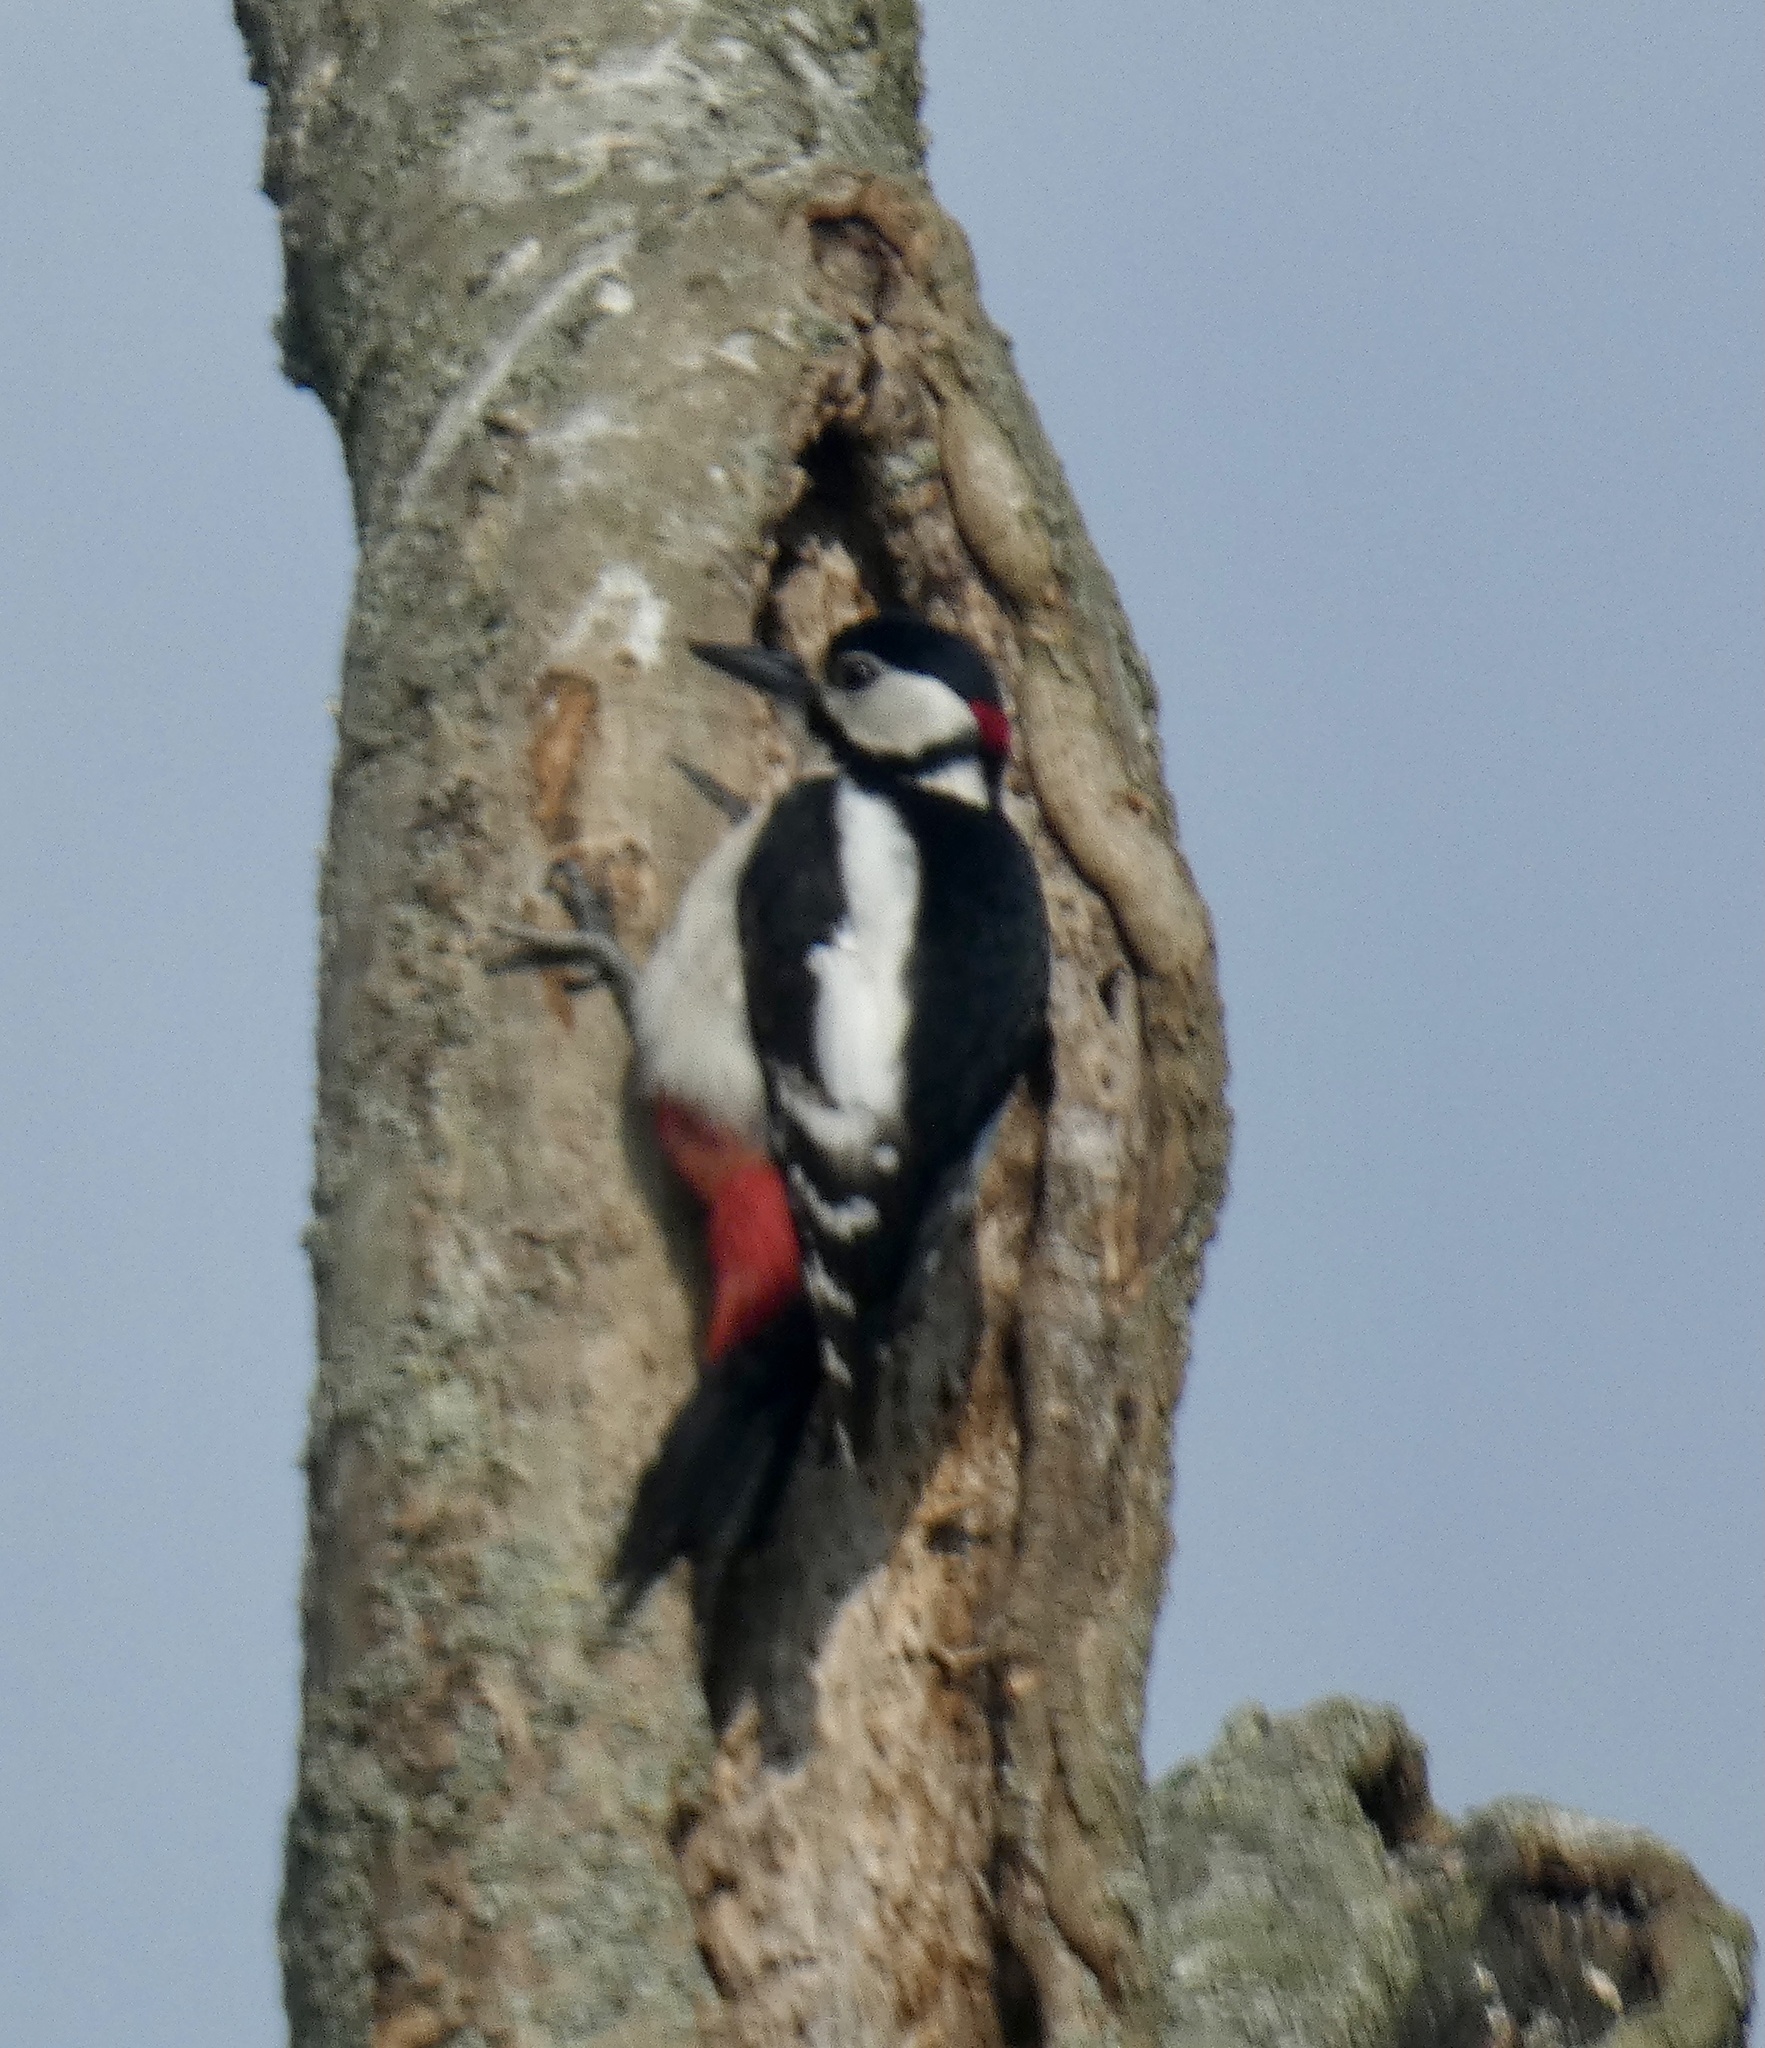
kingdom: Animalia
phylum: Chordata
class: Aves
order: Piciformes
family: Picidae
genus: Dendrocopos
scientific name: Dendrocopos major
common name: Great spotted woodpecker
